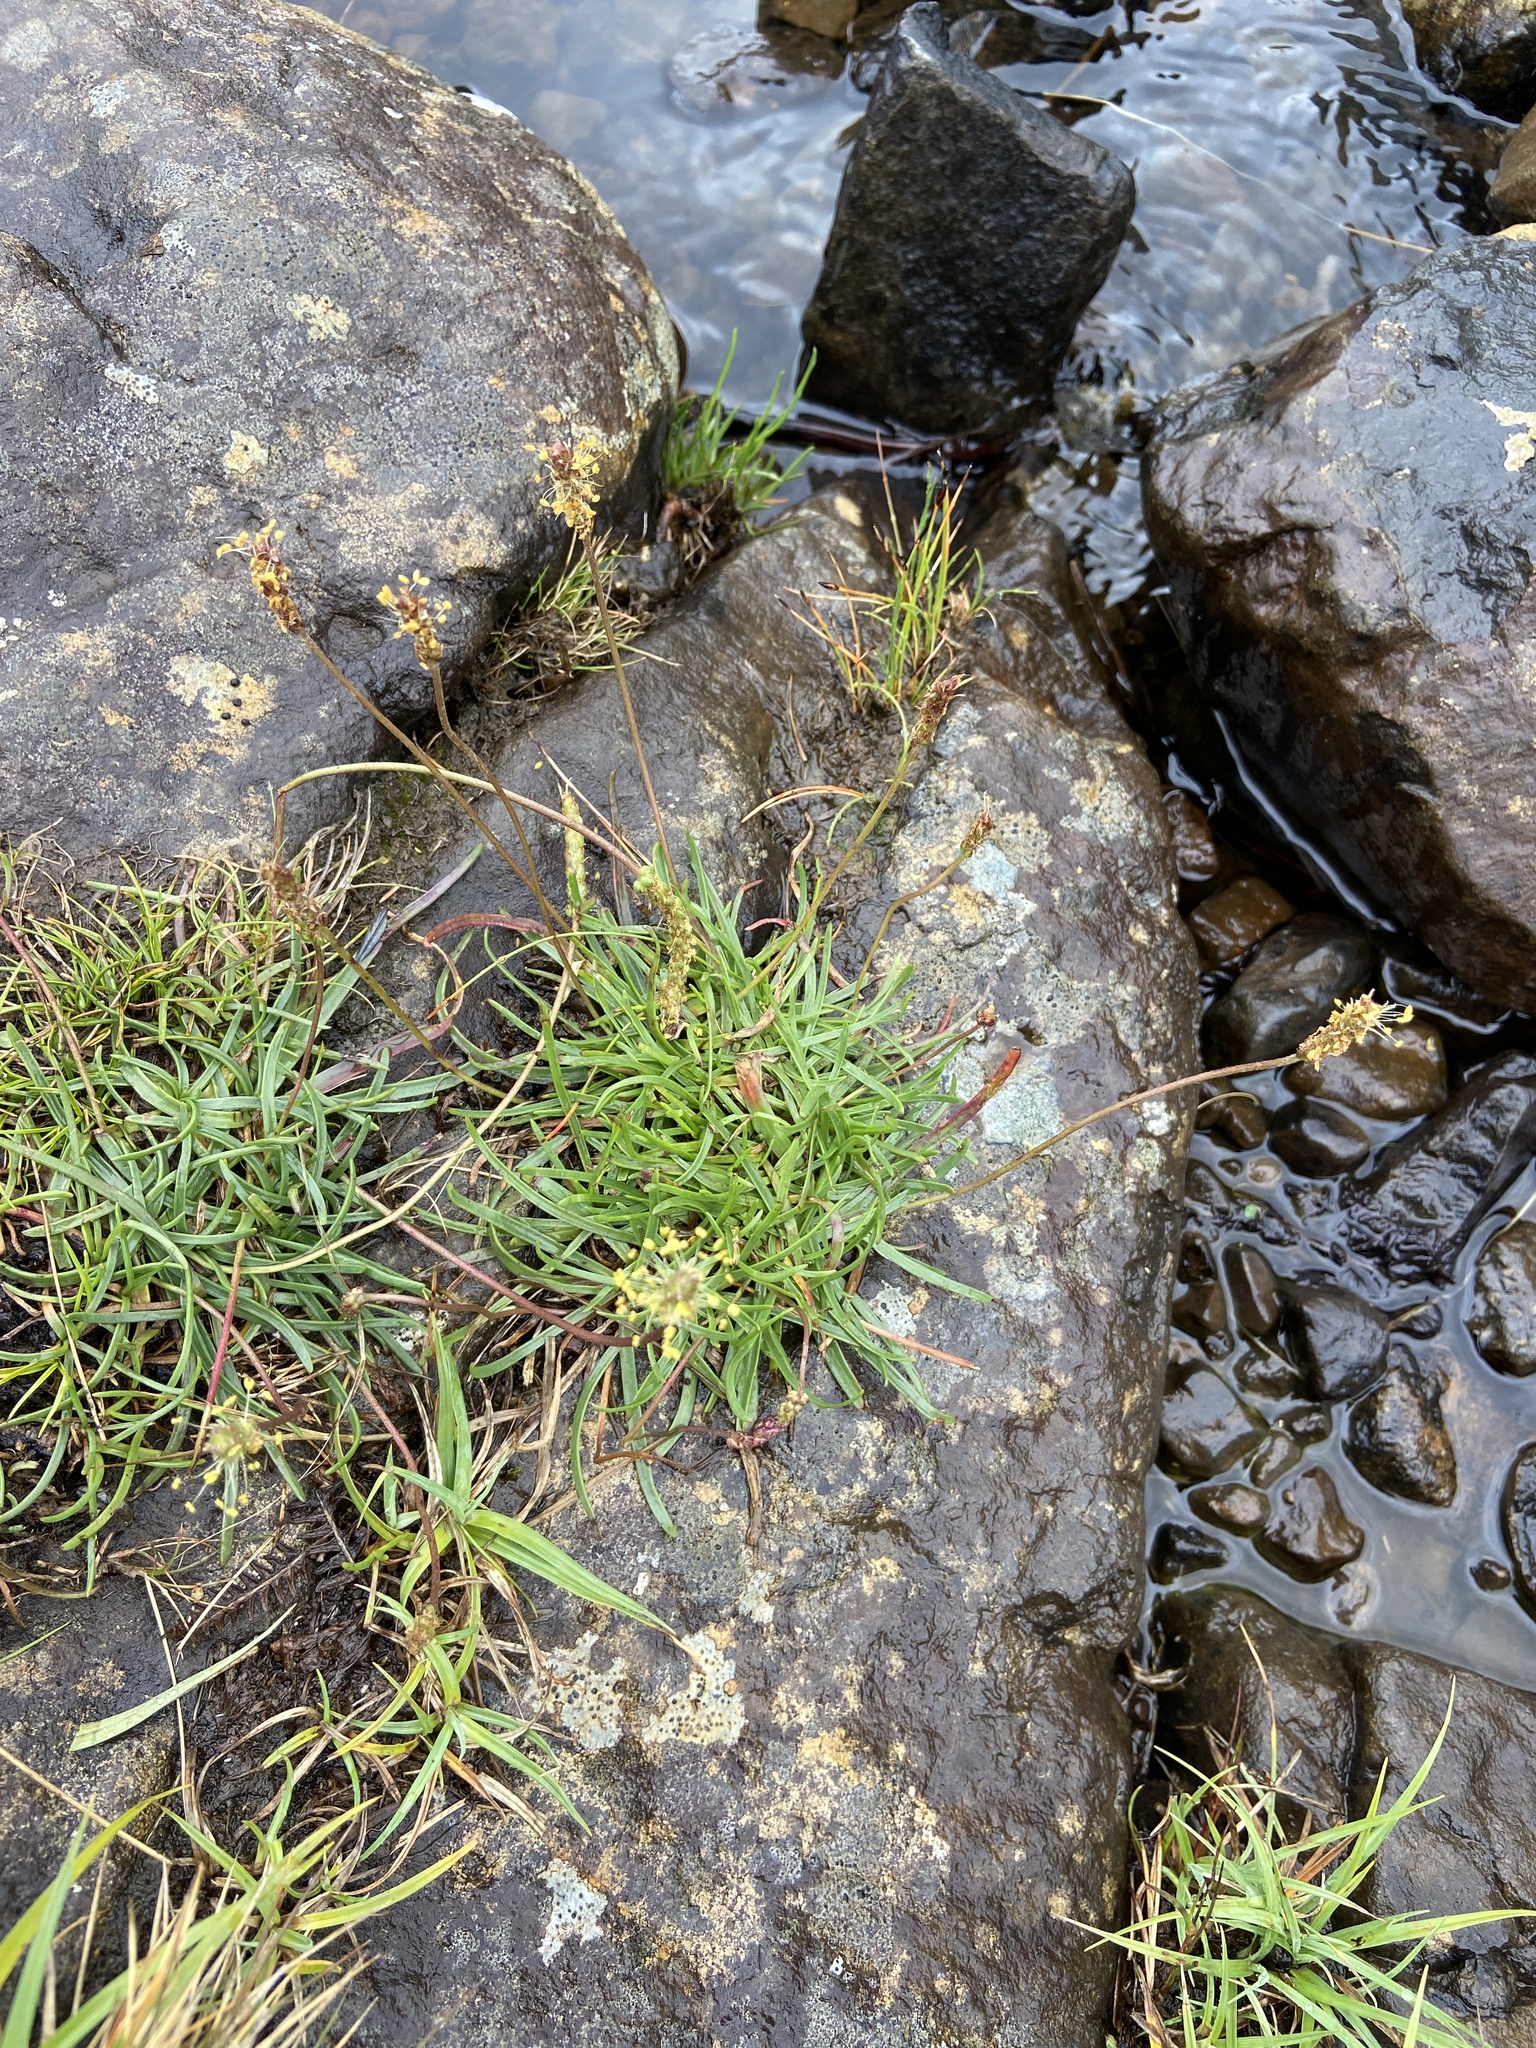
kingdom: Plantae
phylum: Tracheophyta
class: Magnoliopsida
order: Lamiales
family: Plantaginaceae
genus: Plantago
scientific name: Plantago maritima
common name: Sea plantain
